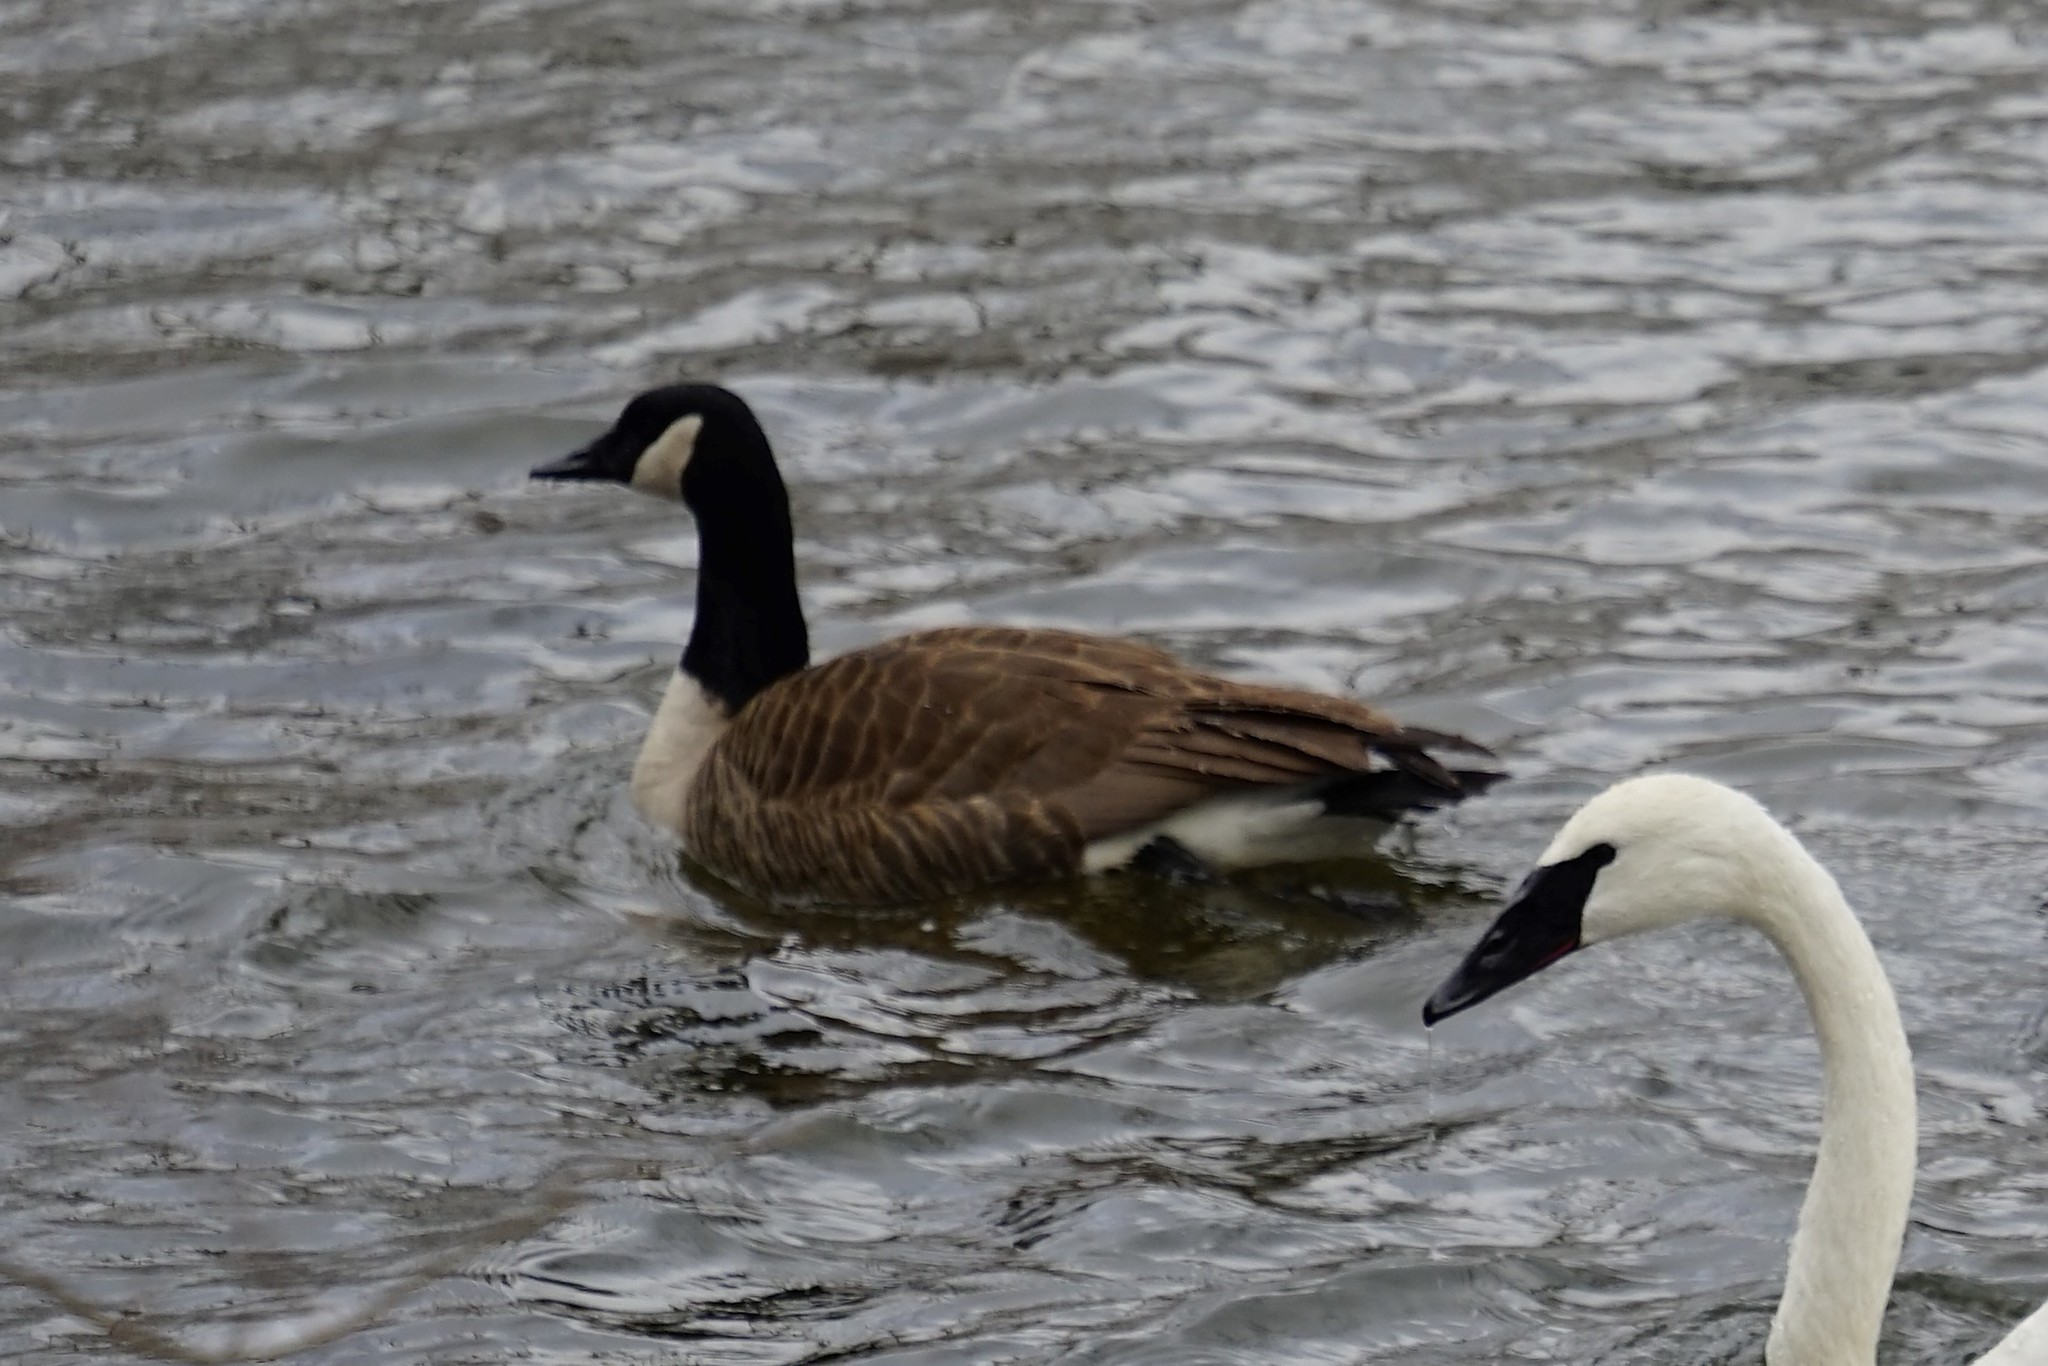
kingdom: Animalia
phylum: Chordata
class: Aves
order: Anseriformes
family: Anatidae
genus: Branta
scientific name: Branta canadensis
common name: Canada goose
